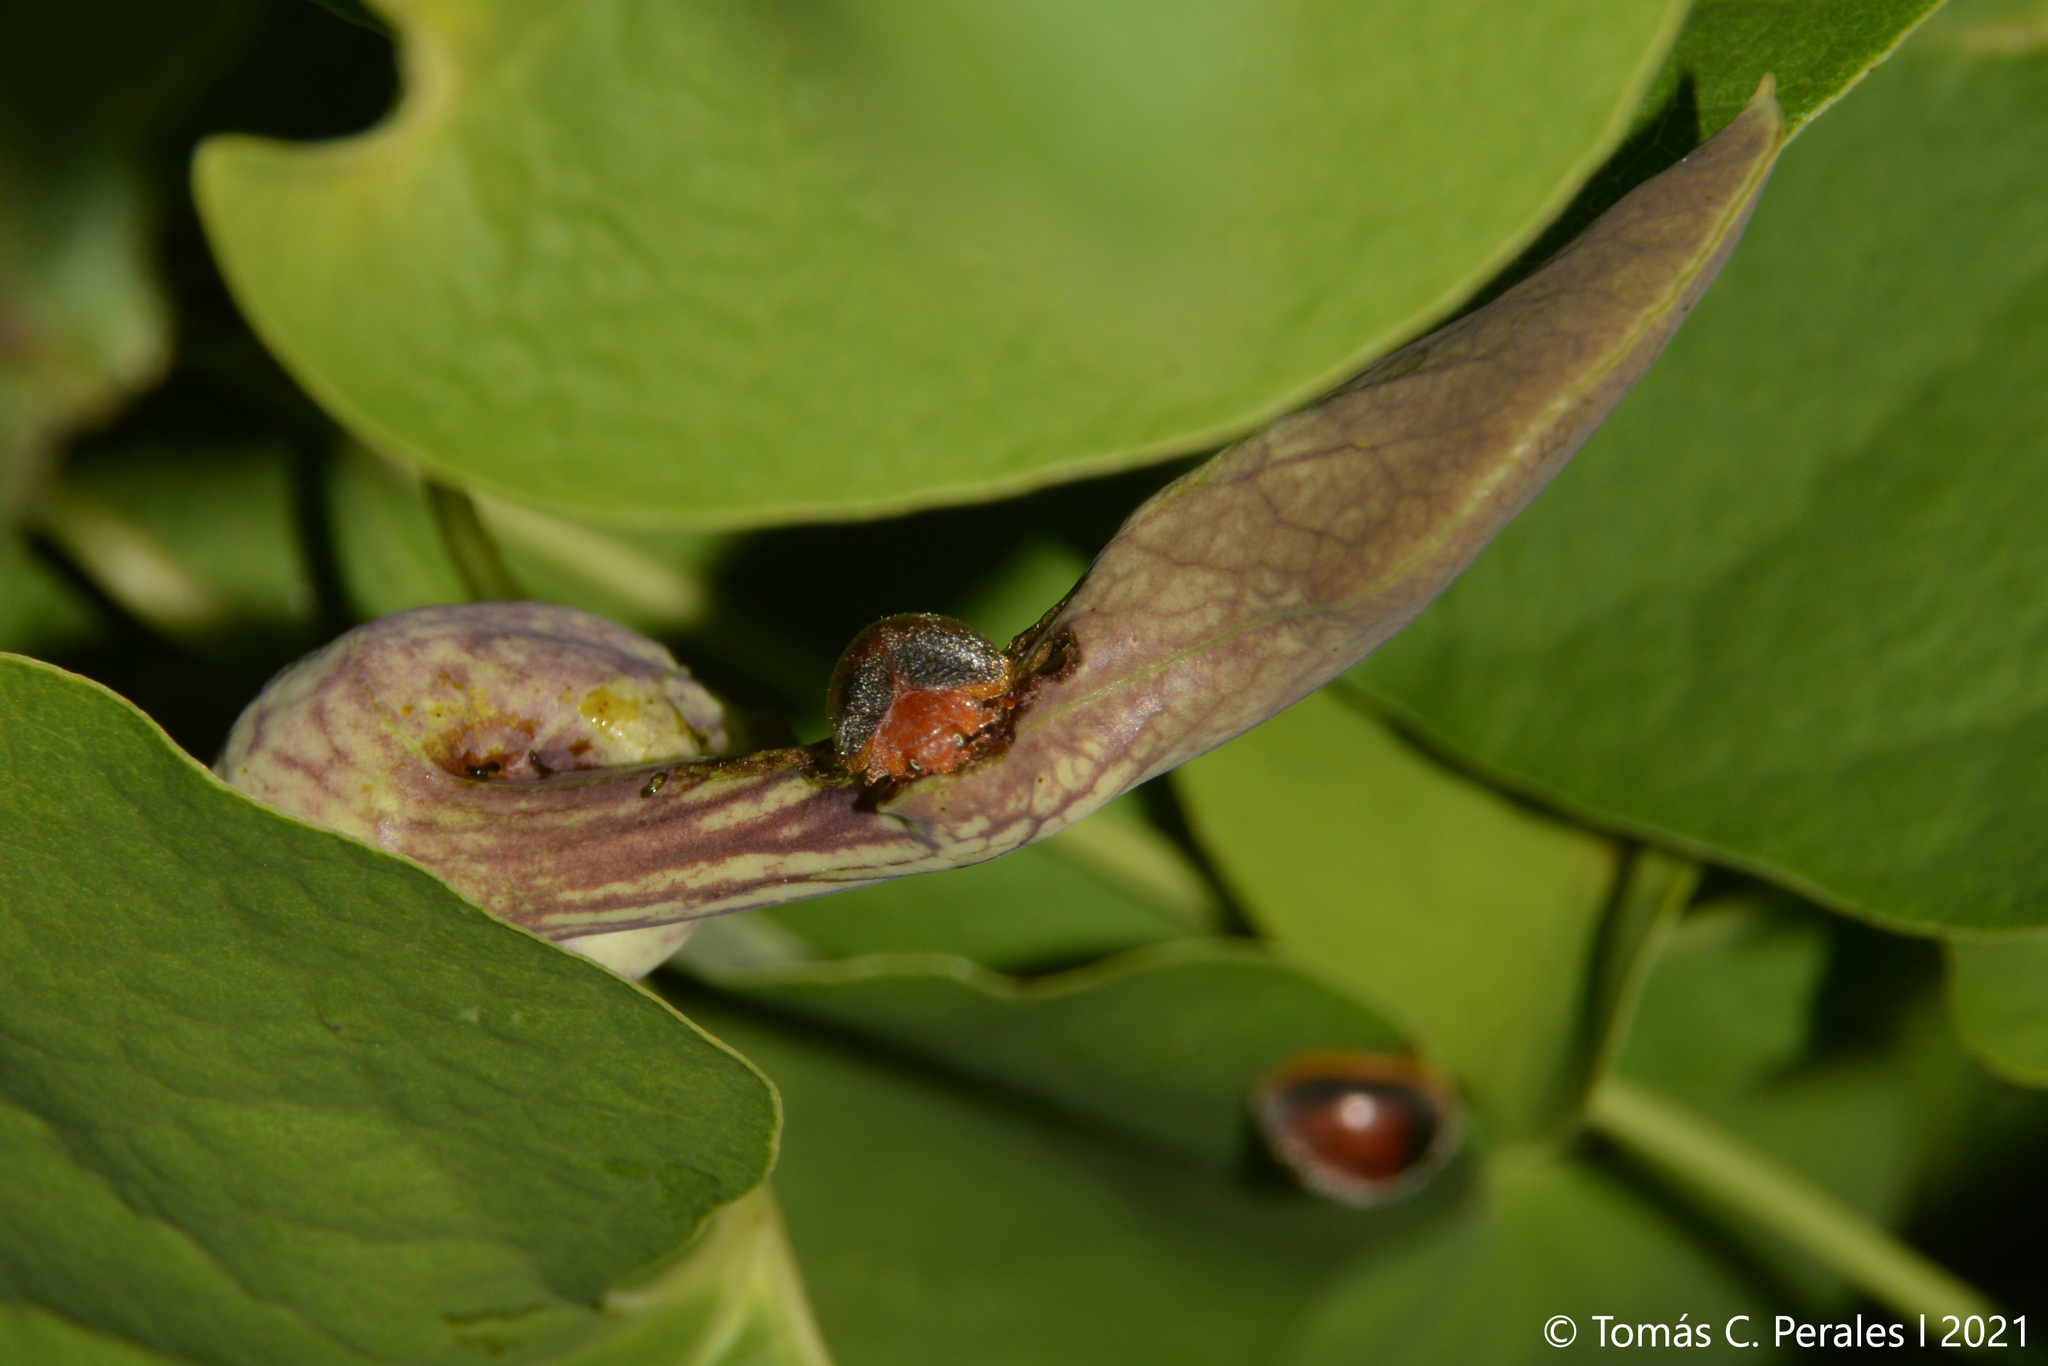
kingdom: Plantae
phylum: Tracheophyta
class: Magnoliopsida
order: Piperales
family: Aristolochiaceae
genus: Aristolochia
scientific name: Aristolochia argentina
